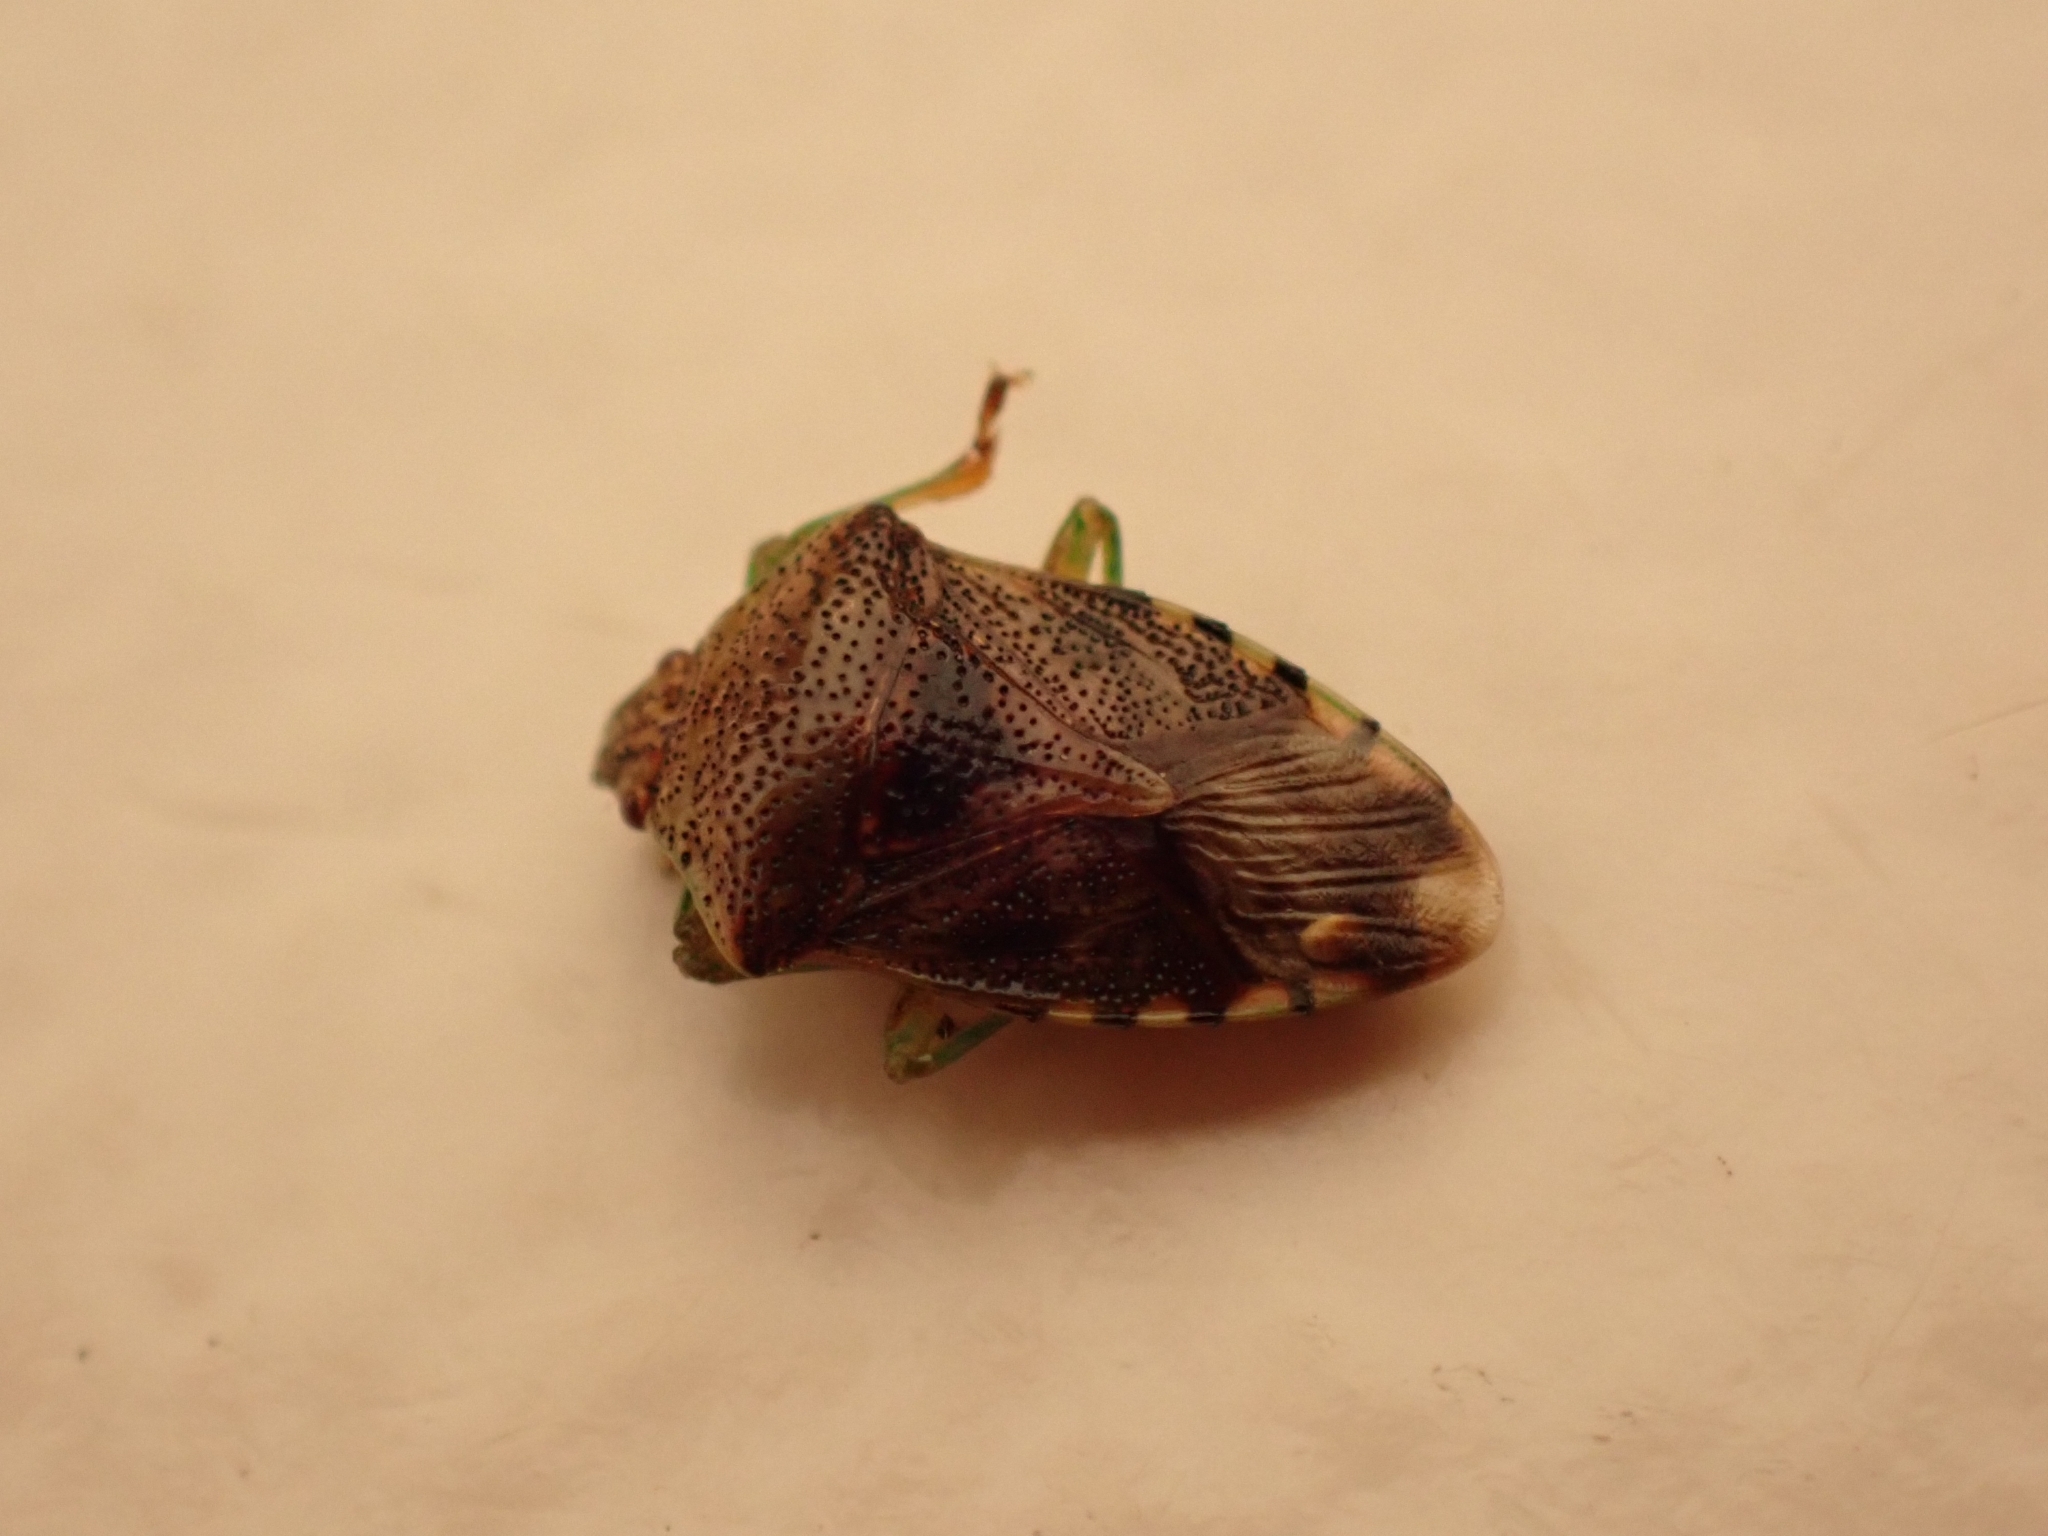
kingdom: Animalia
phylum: Arthropoda
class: Insecta
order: Hemiptera
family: Acanthosomatidae
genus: Elasmucha
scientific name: Elasmucha grisea
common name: Parent bug
